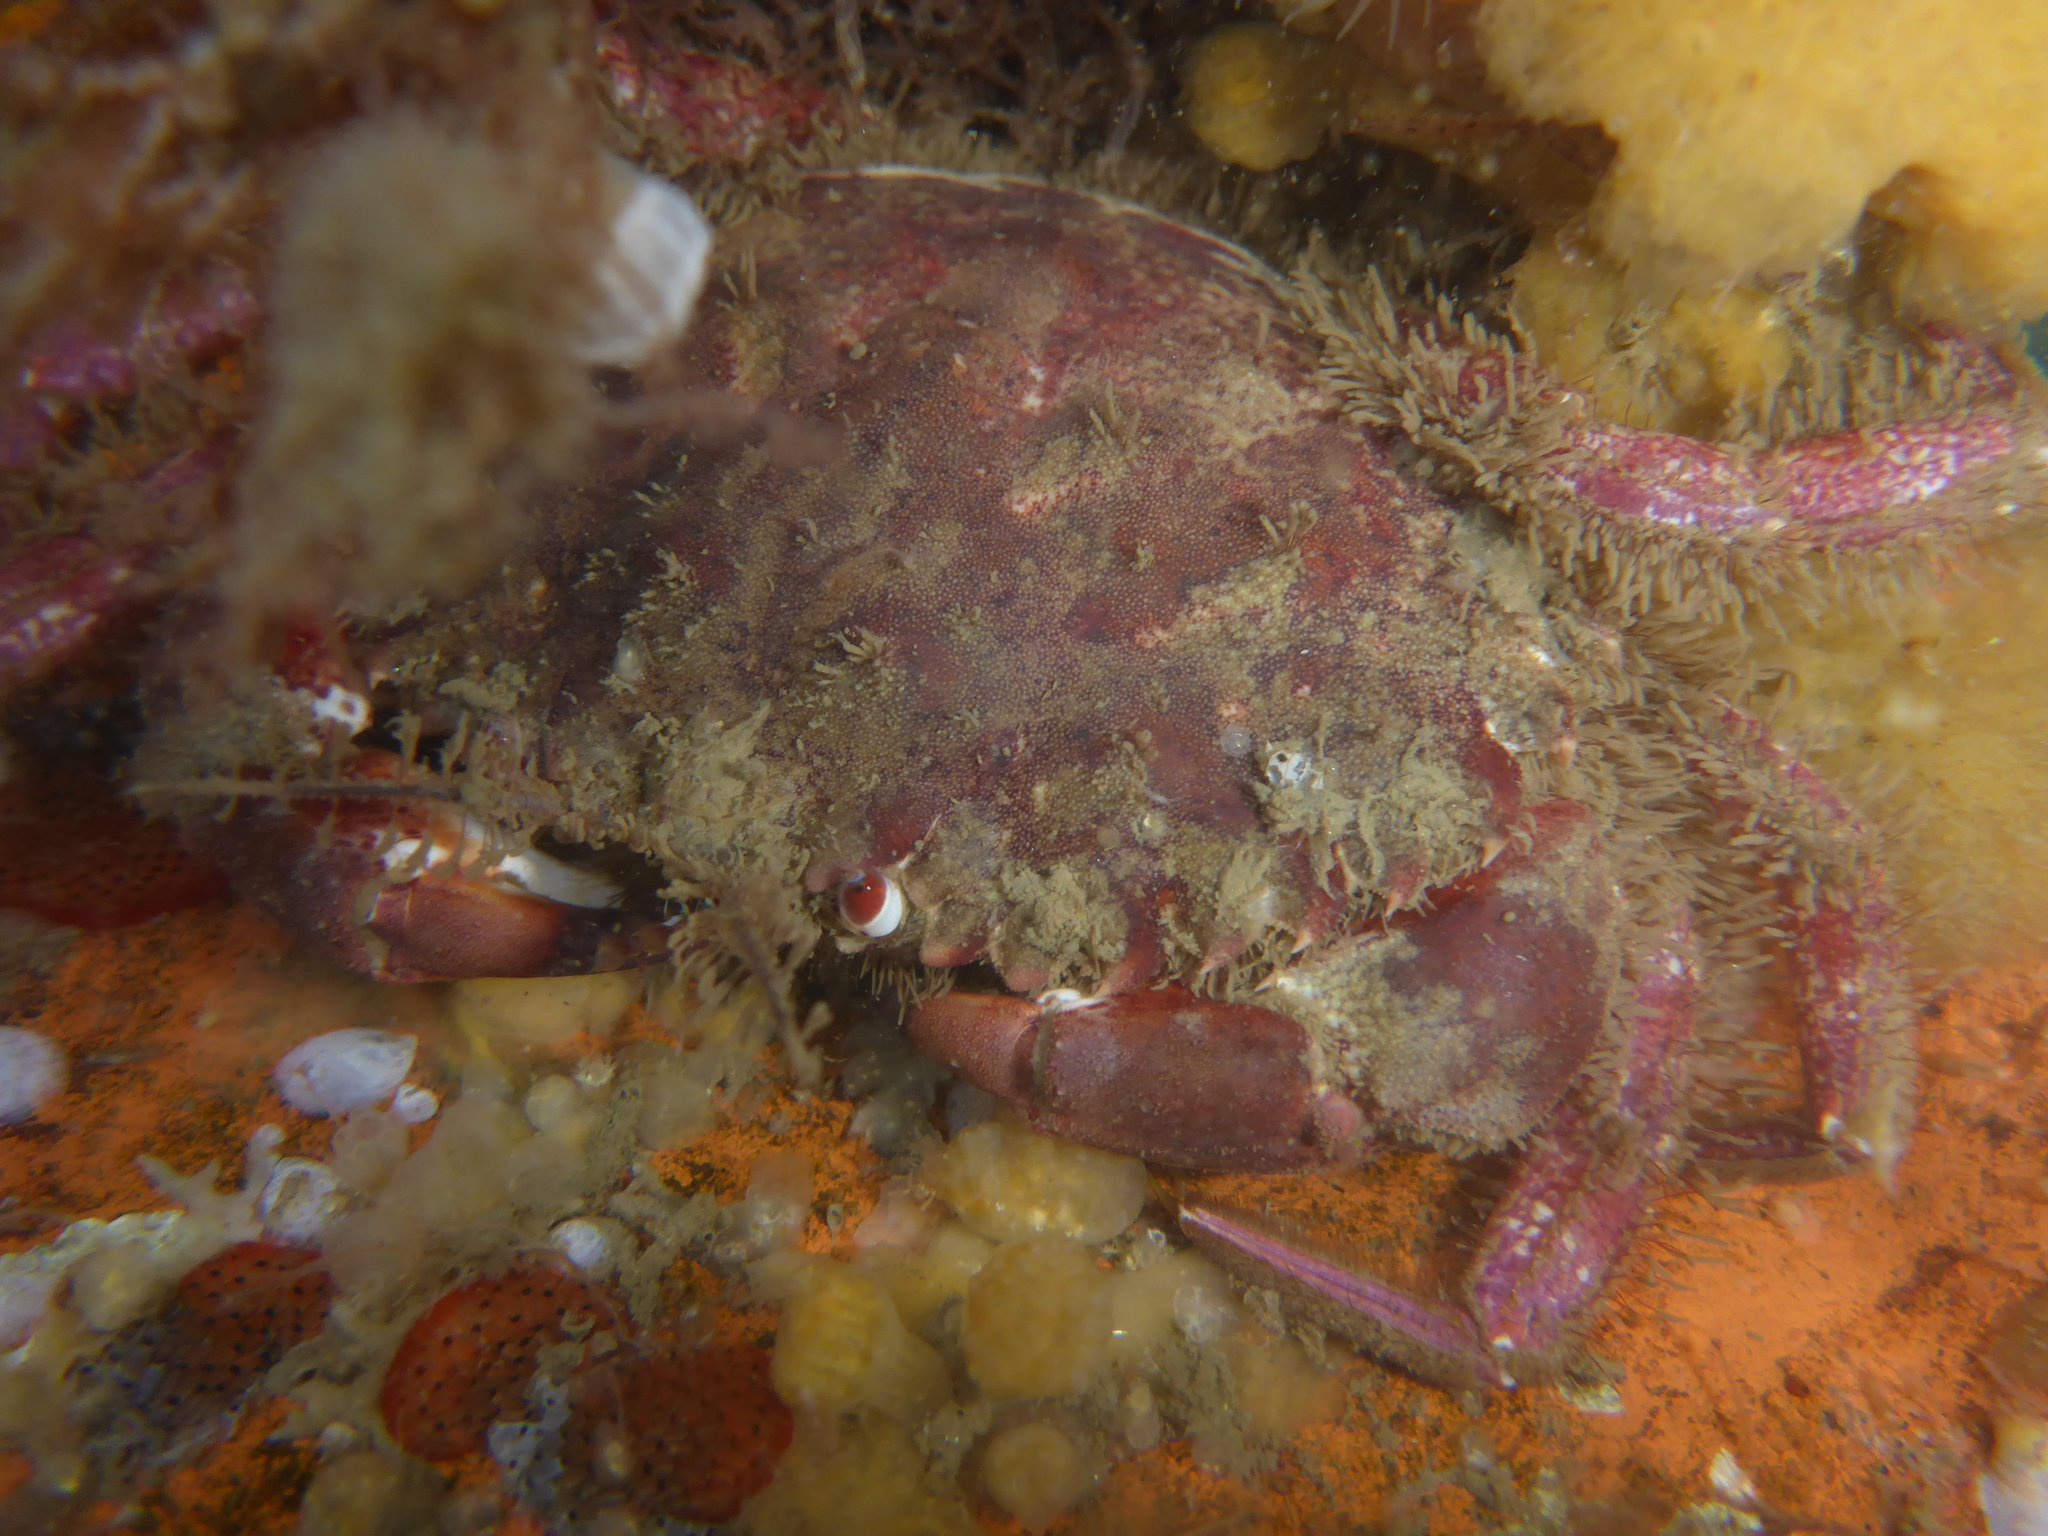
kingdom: Animalia
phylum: Arthropoda
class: Malacostraca
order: Decapoda
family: Cancridae
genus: Romaleon
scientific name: Romaleon antennarium
